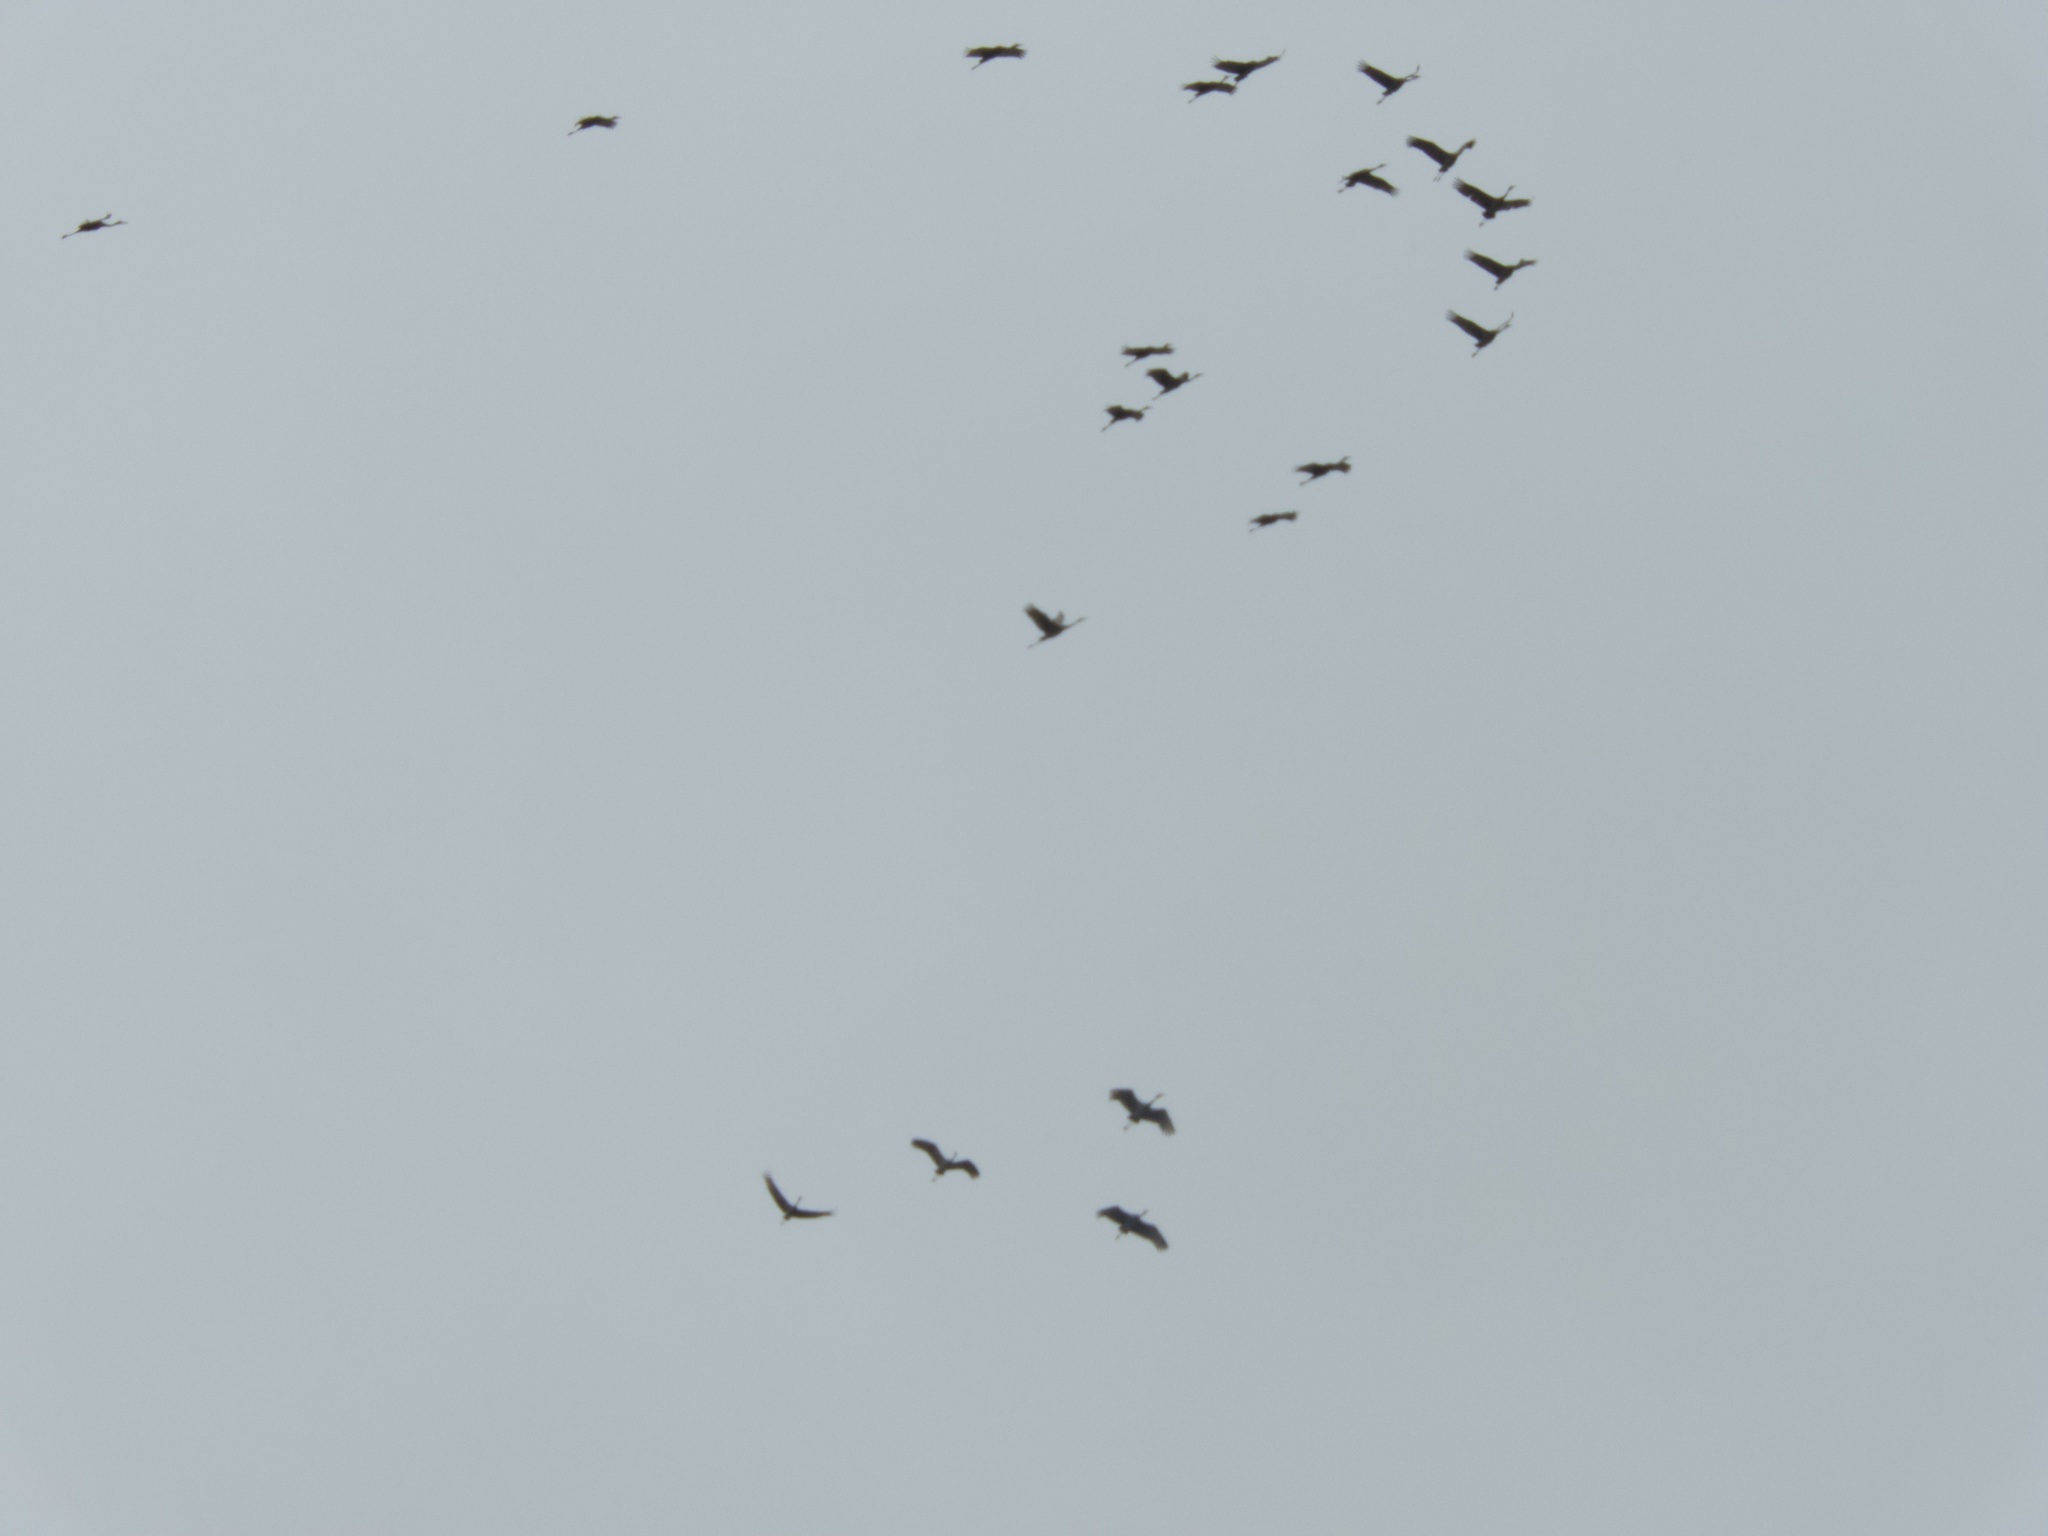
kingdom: Animalia
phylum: Chordata
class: Aves
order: Gruiformes
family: Gruidae
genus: Grus
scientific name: Grus canadensis
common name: Sandhill crane
